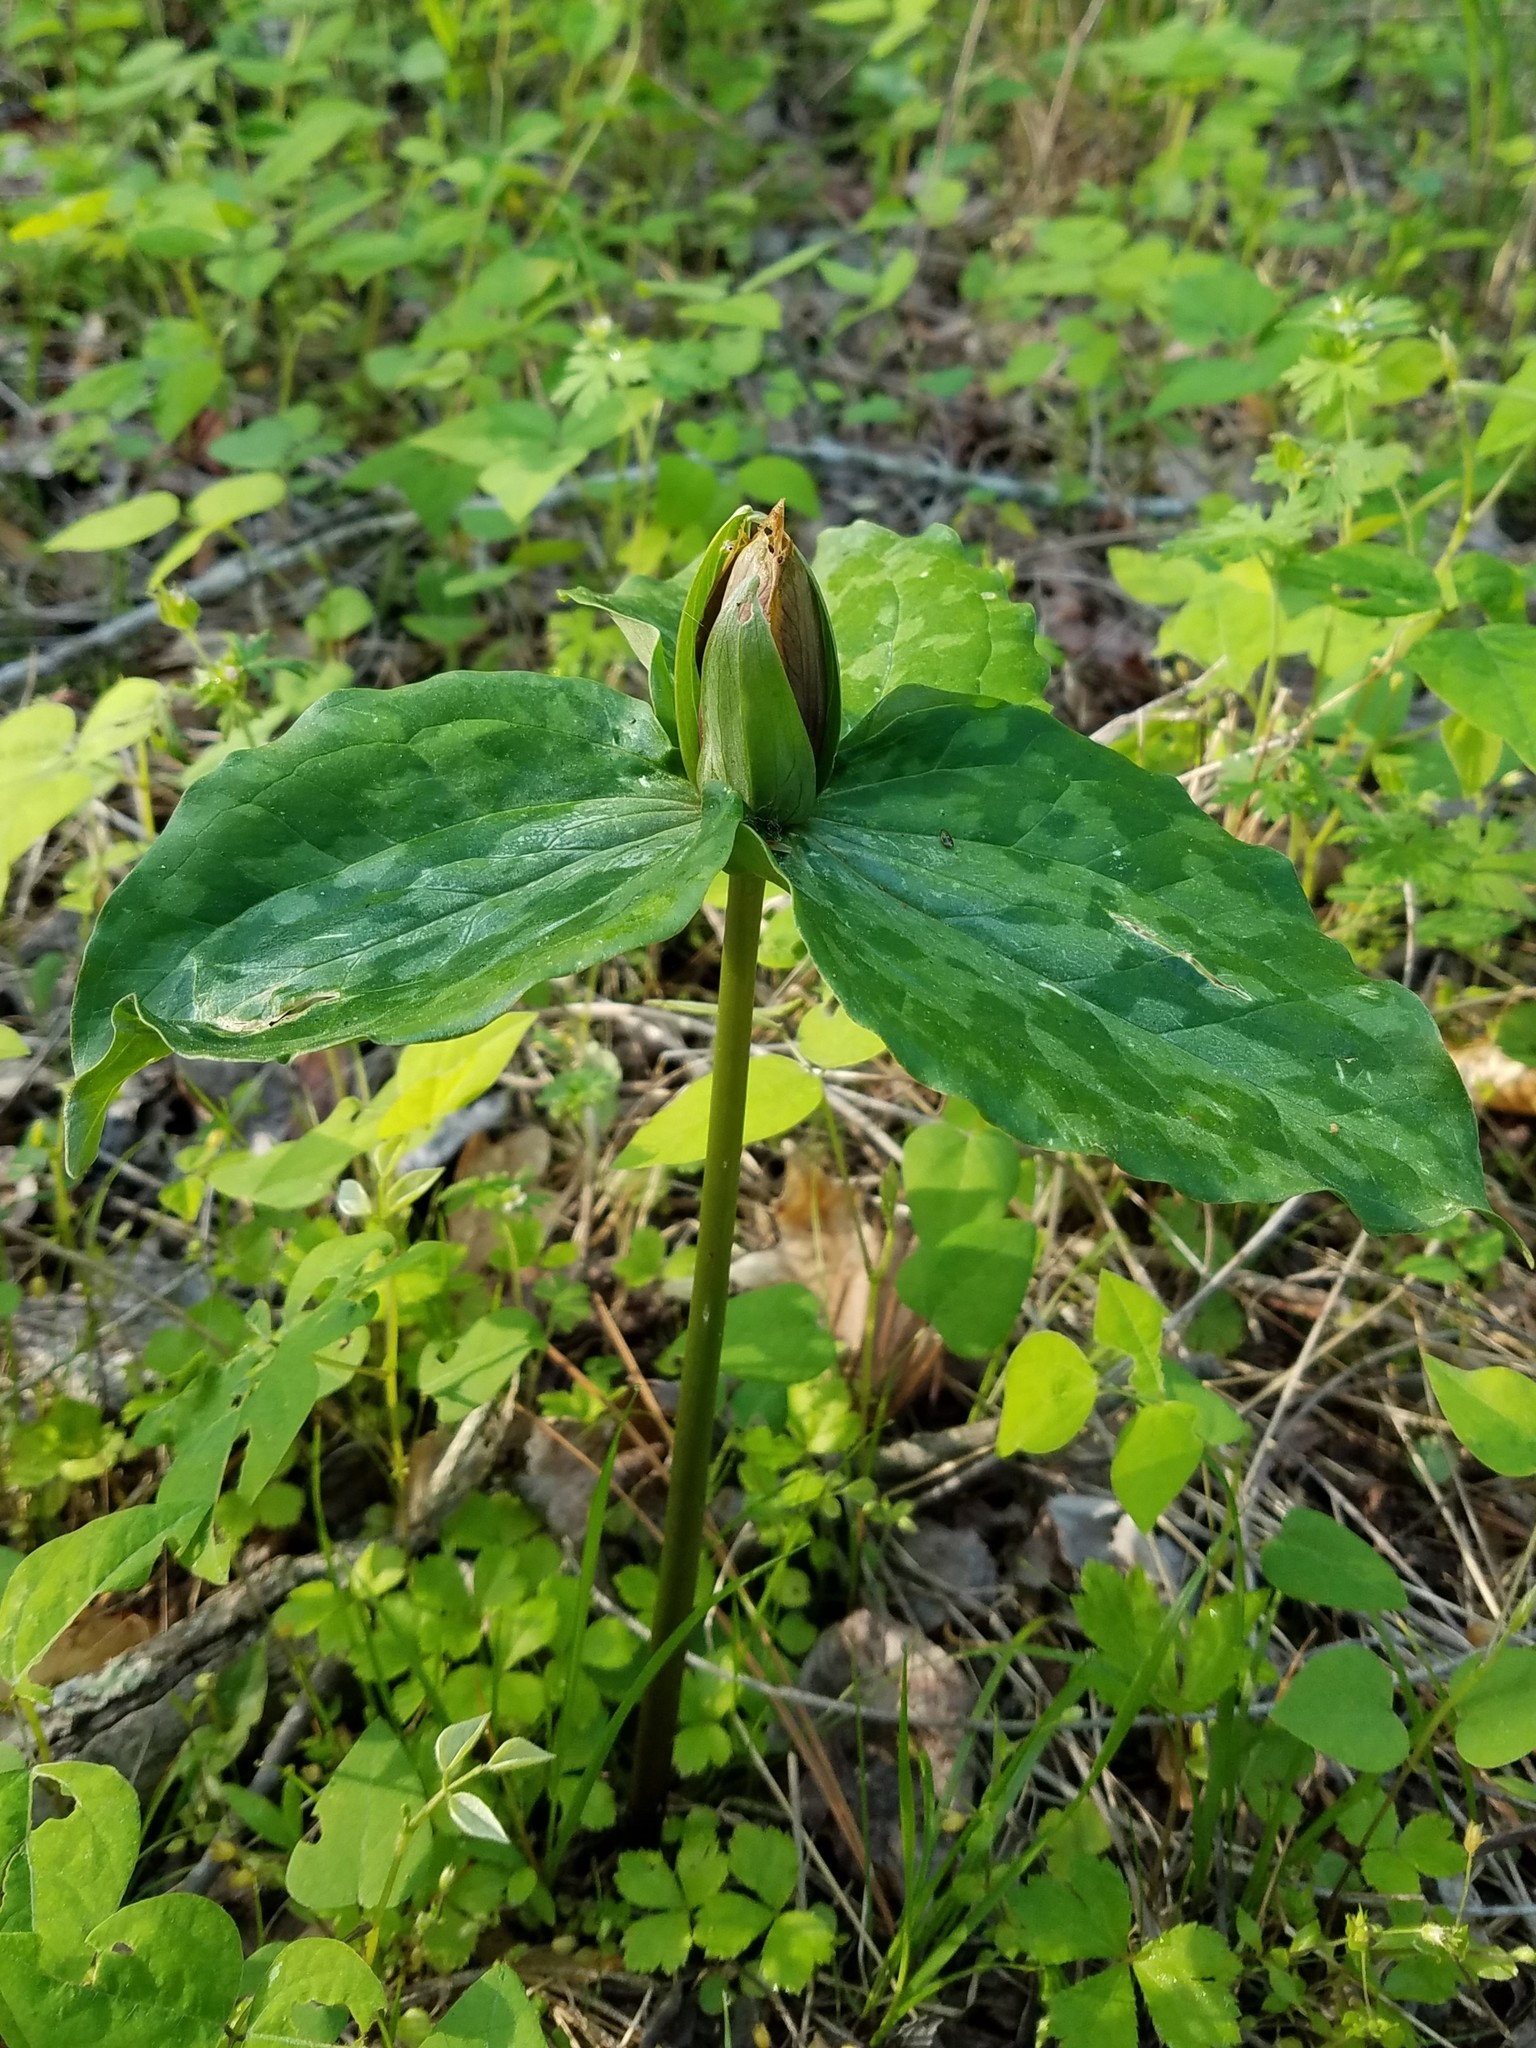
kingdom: Plantae
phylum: Tracheophyta
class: Liliopsida
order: Liliales
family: Melanthiaceae
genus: Trillium
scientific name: Trillium cuneatum
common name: Cuneate trillium
